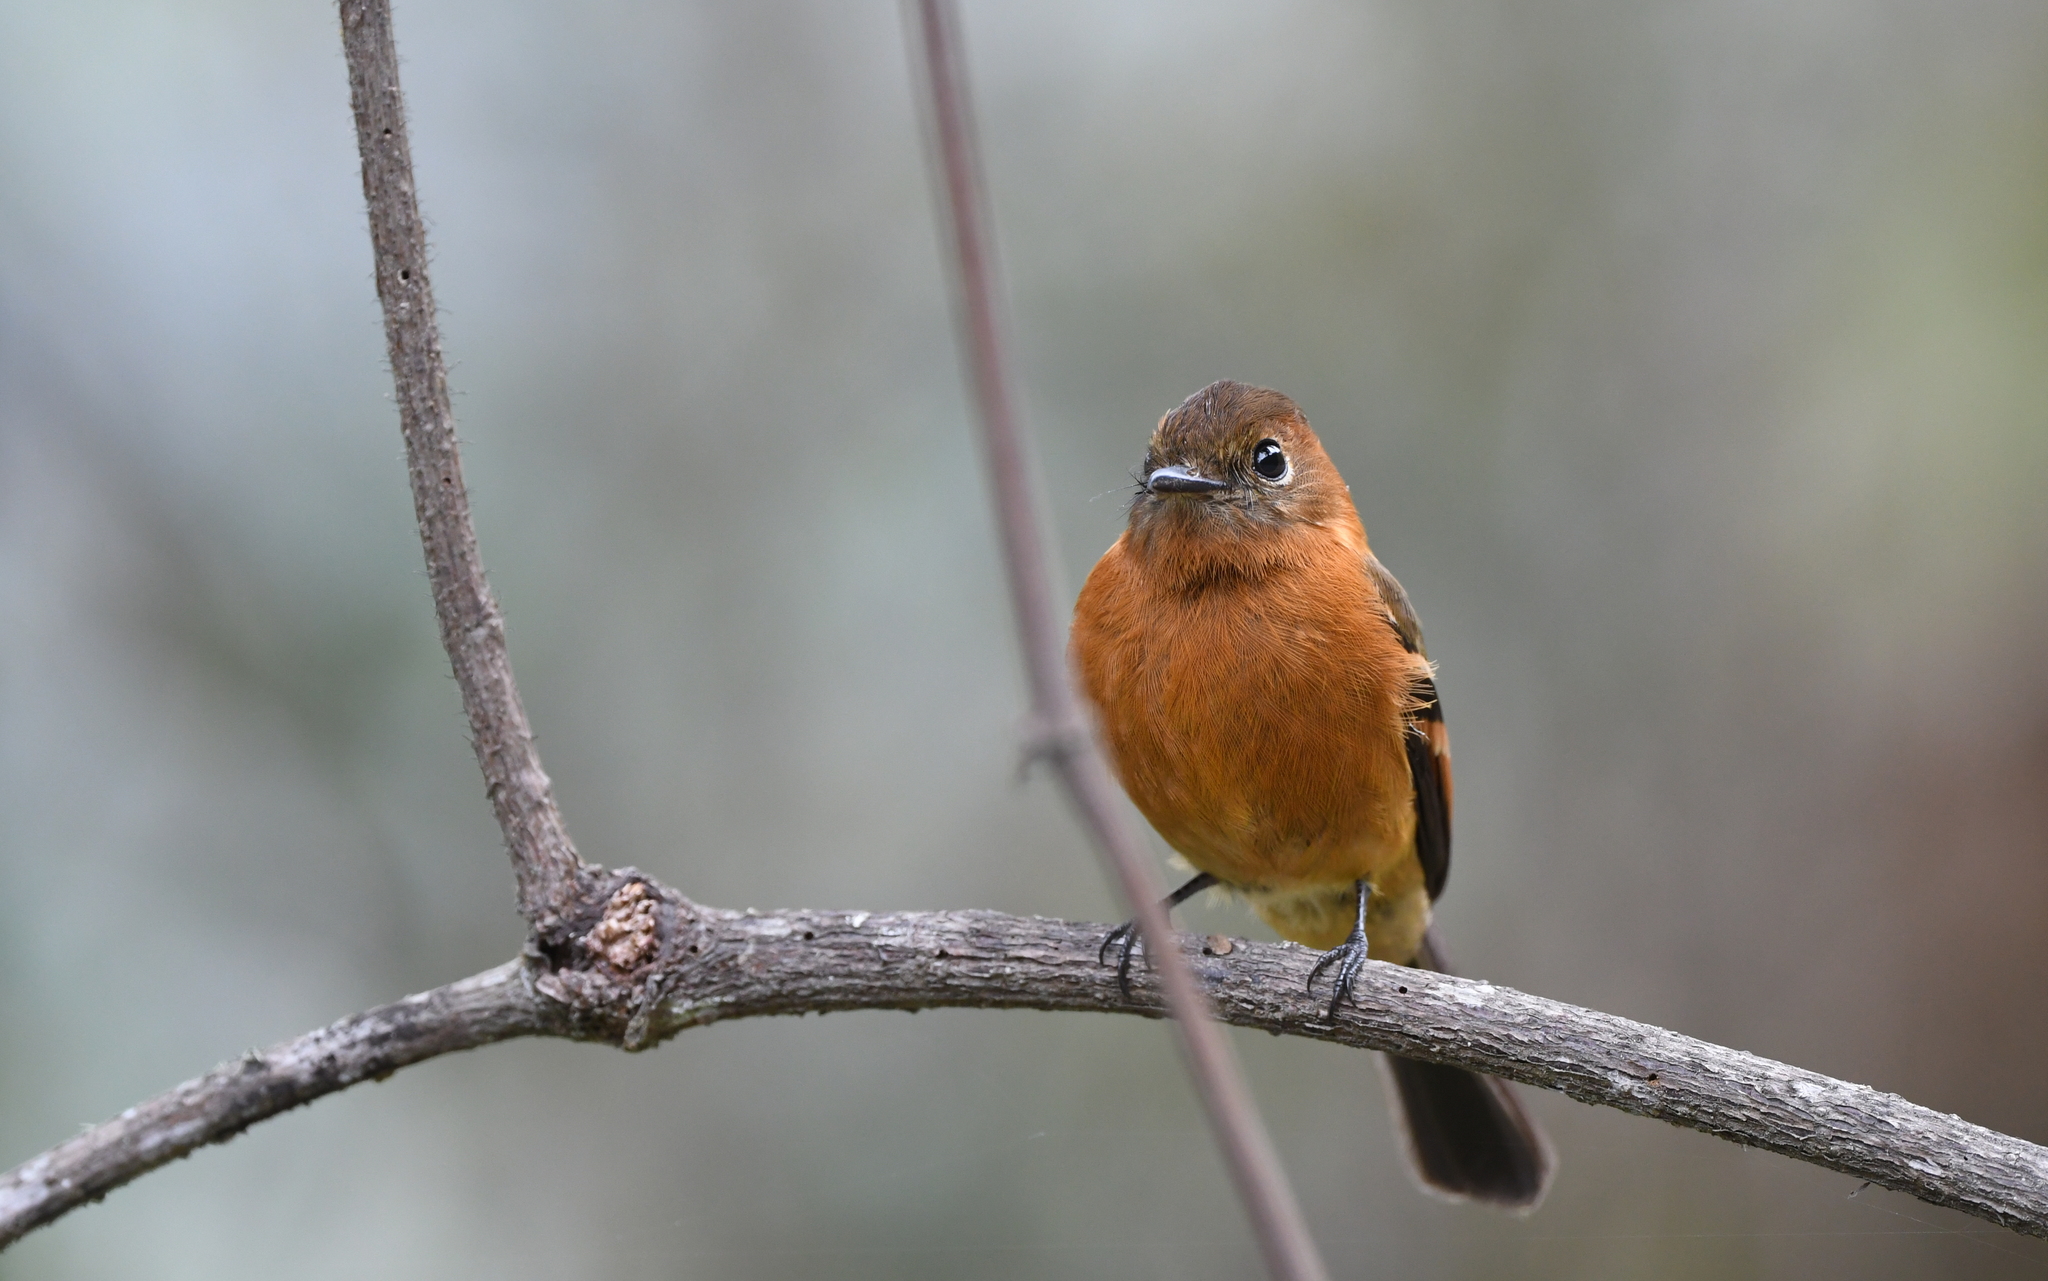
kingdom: Animalia
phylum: Chordata
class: Aves
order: Passeriformes
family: Tyrannidae
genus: Pyrrhomyias
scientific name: Pyrrhomyias cinnamomeus
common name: Cinnamon flycatcher
